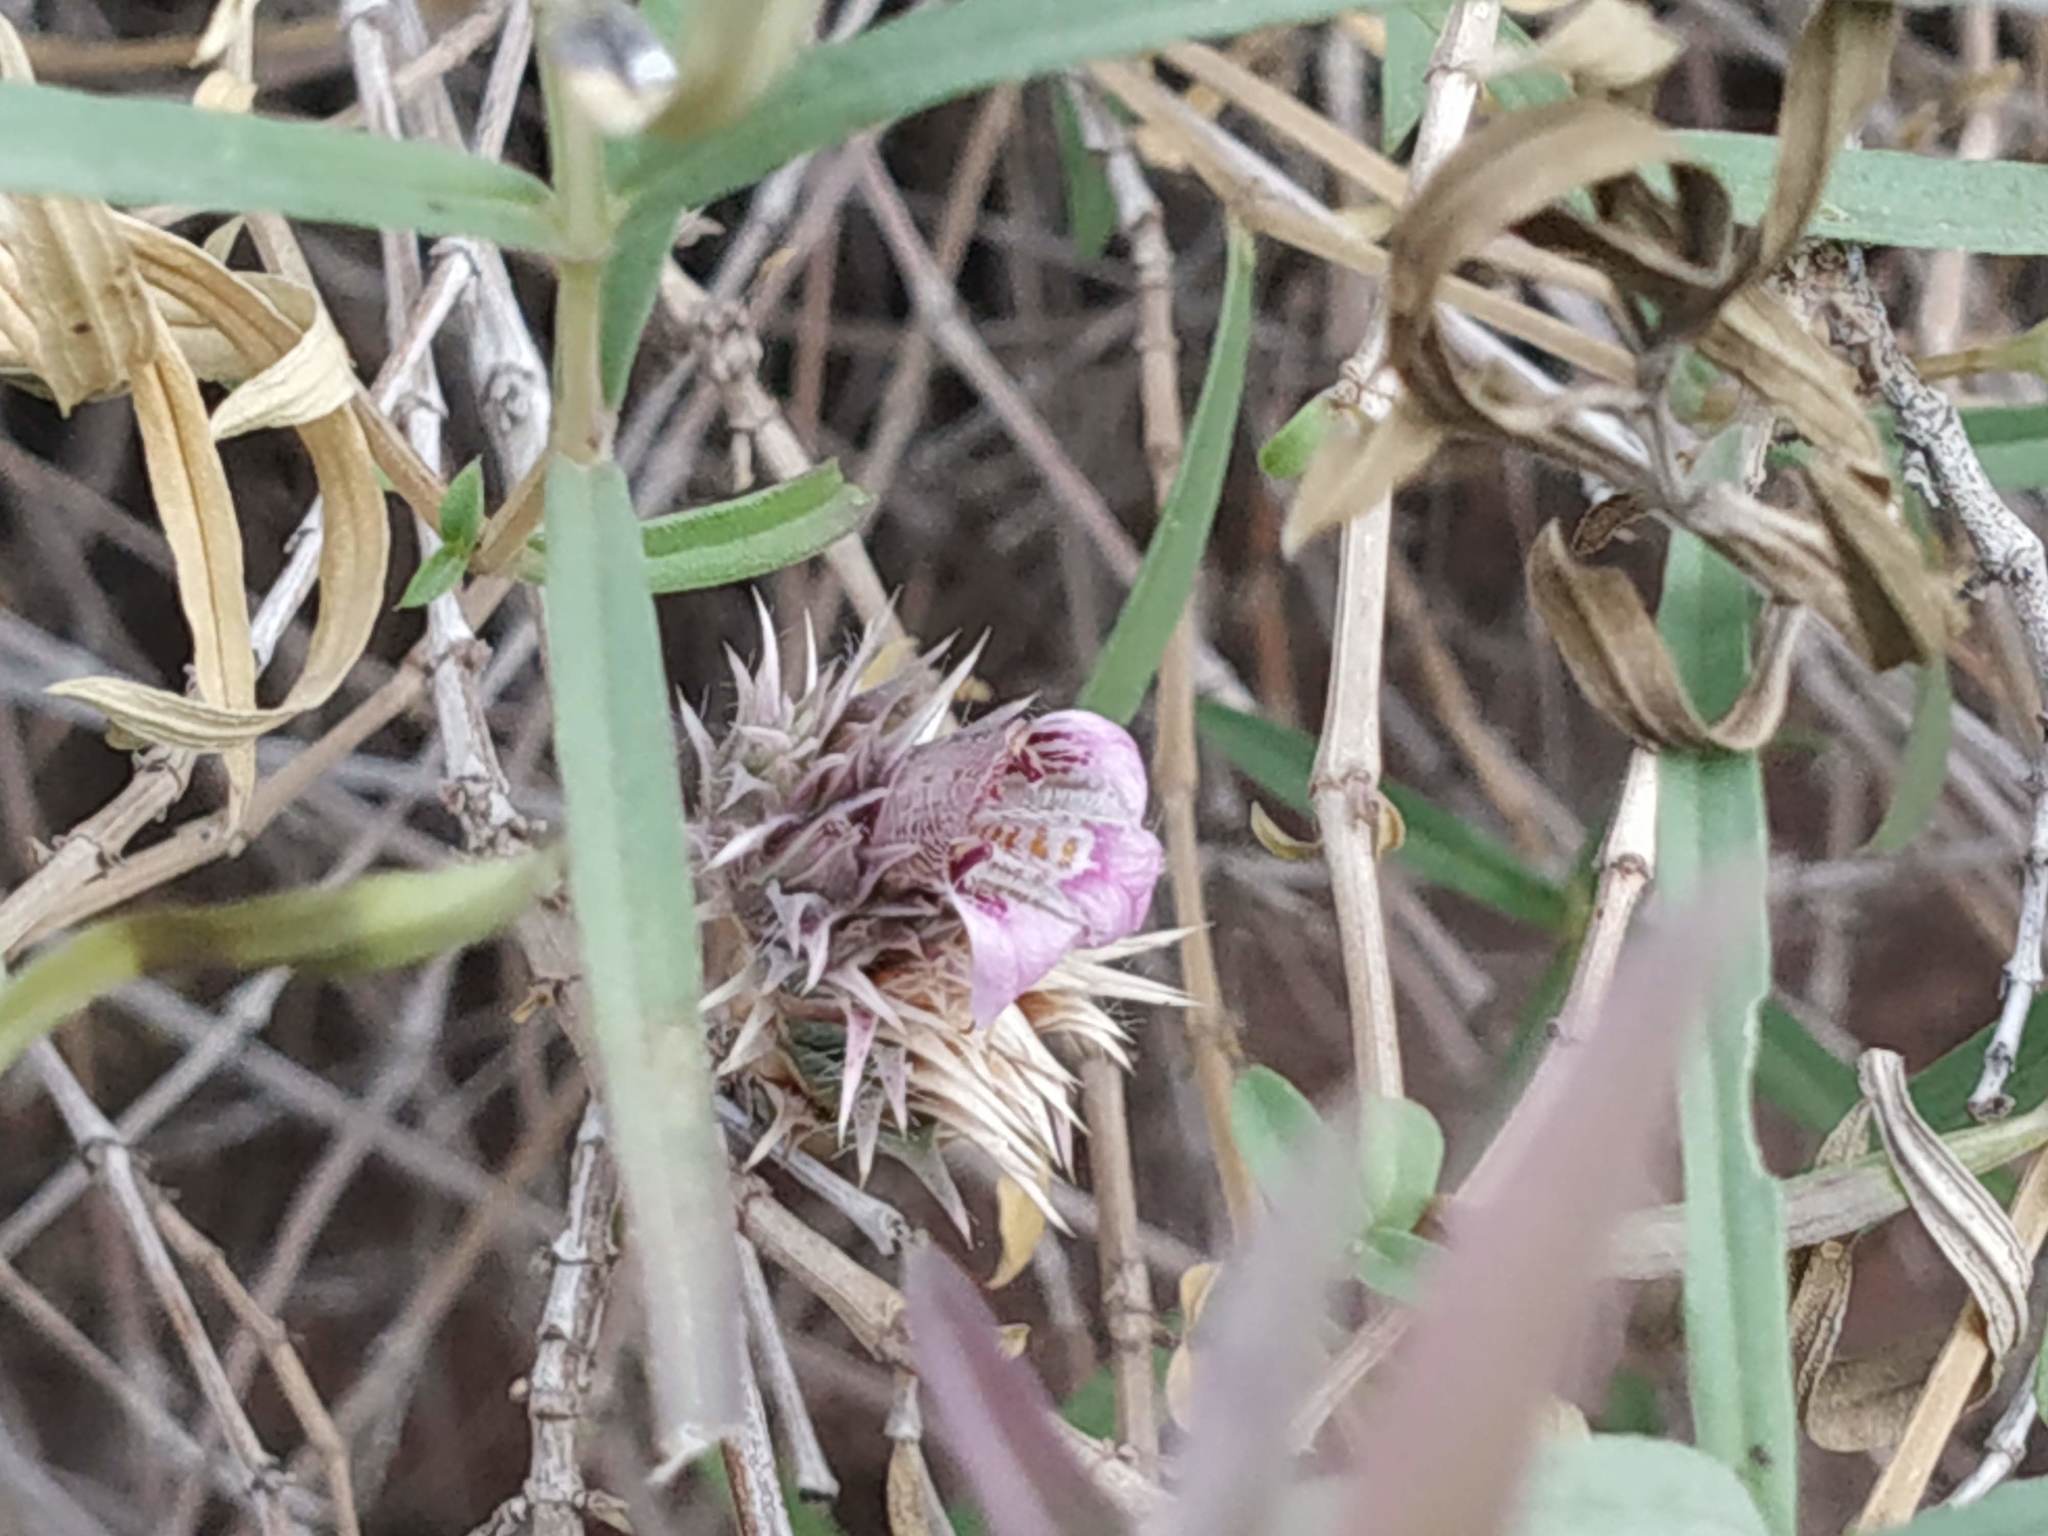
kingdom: Plantae
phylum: Tracheophyta
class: Magnoliopsida
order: Lamiales
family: Acanthaceae
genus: Lepidagathis
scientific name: Lepidagathis trinervis
